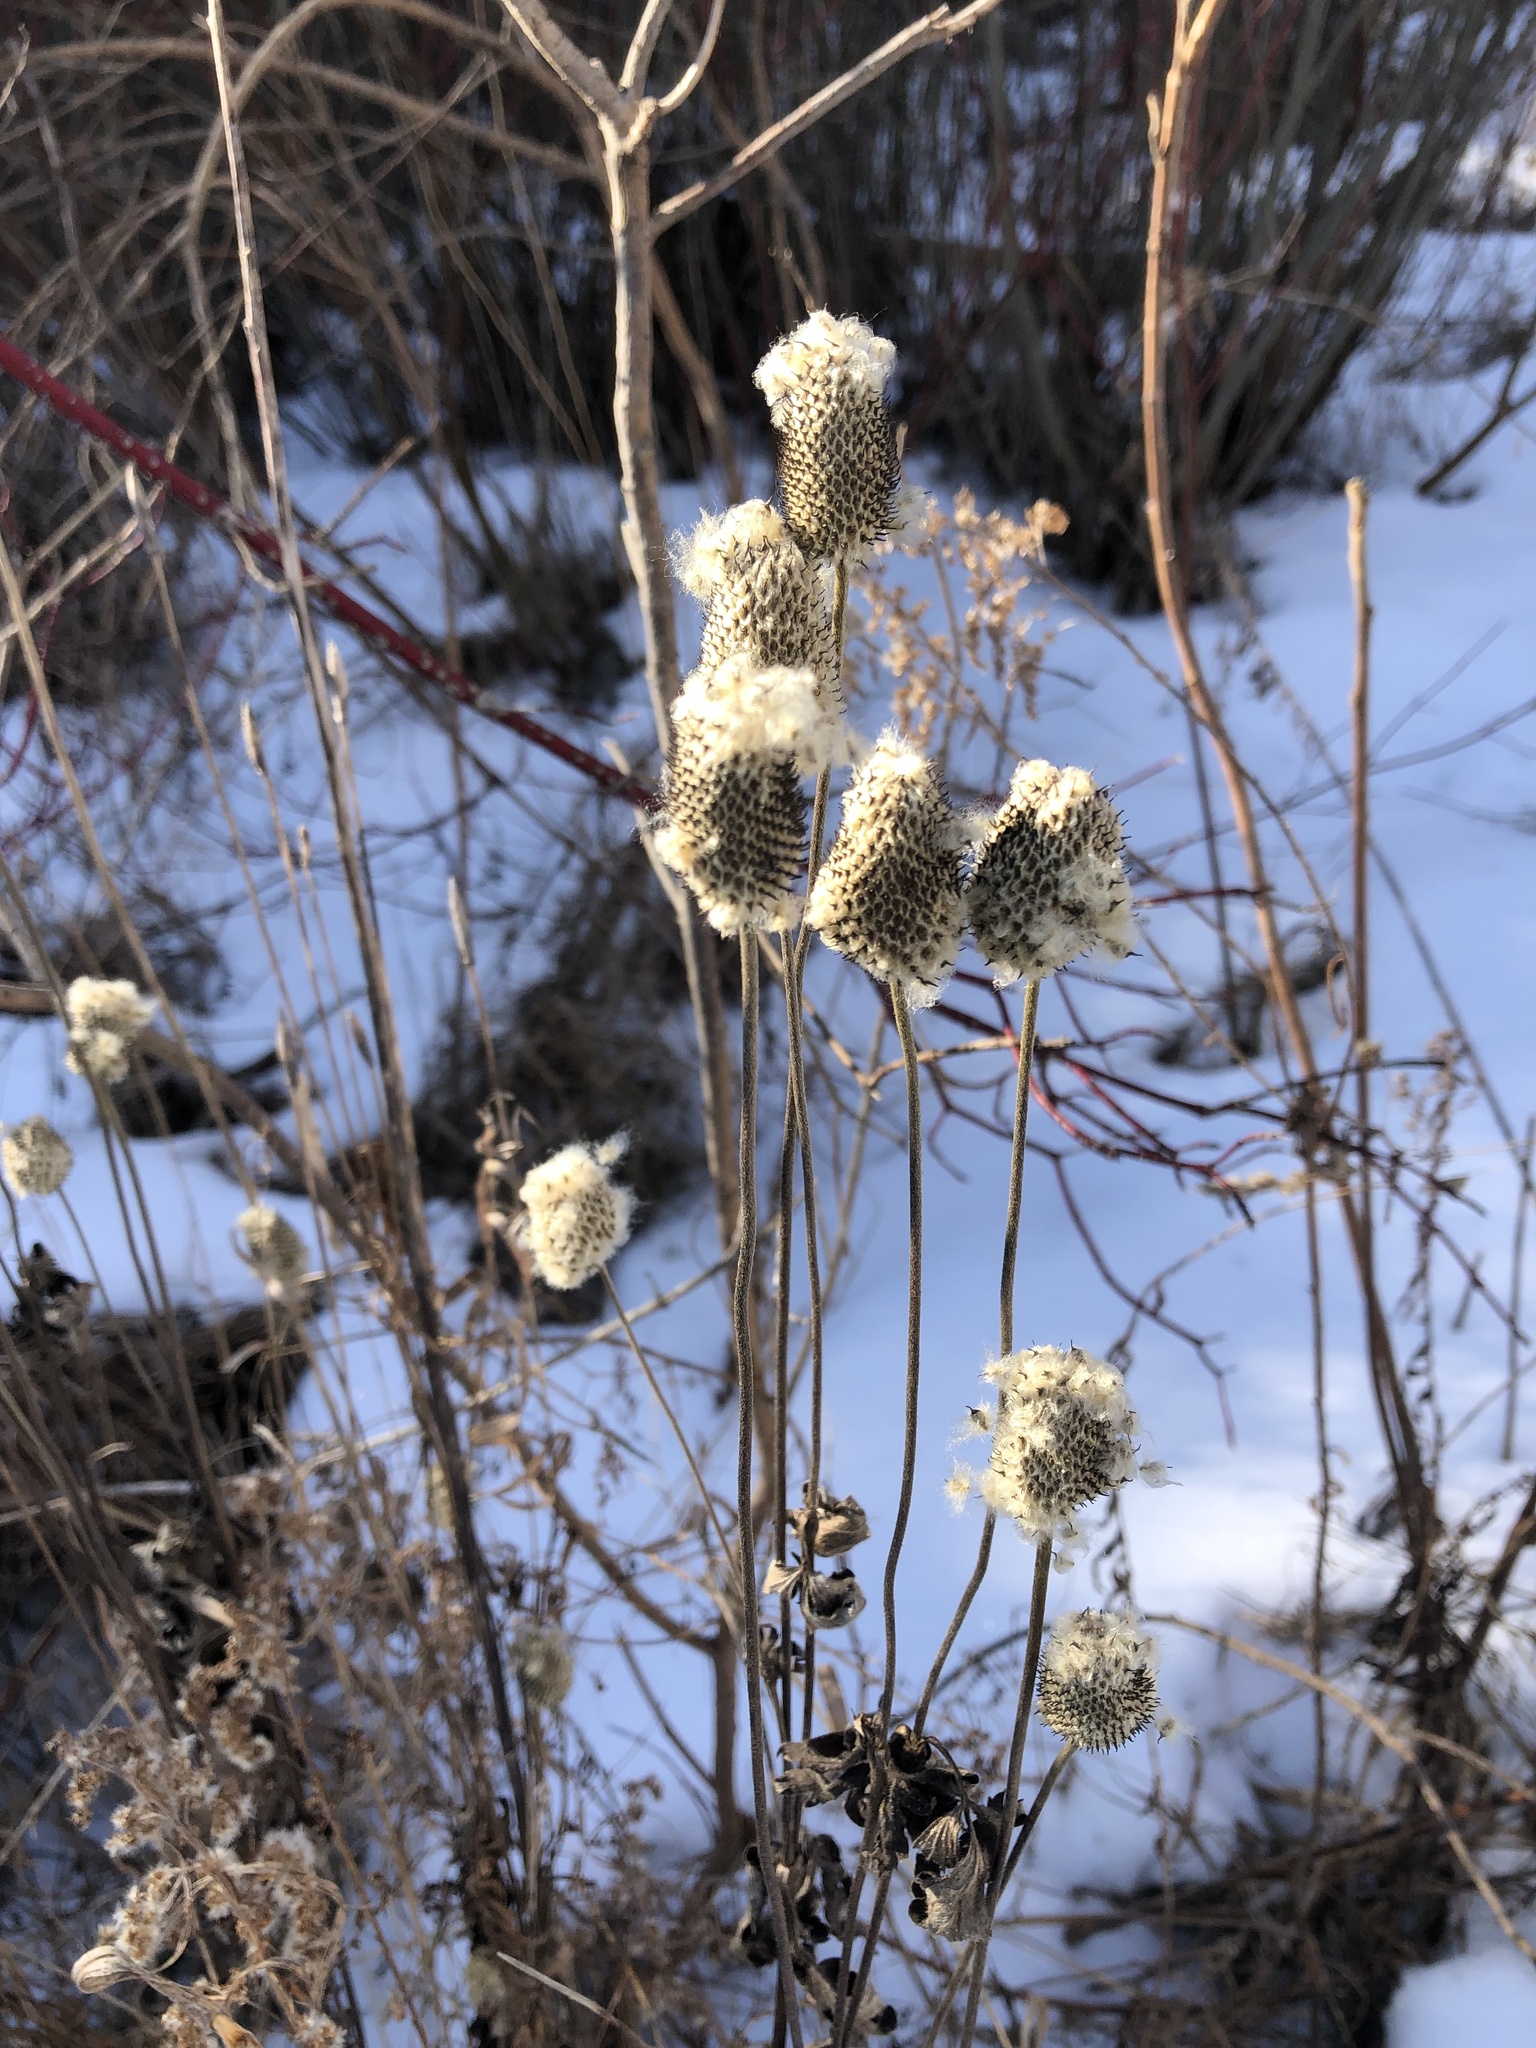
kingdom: Plantae
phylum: Tracheophyta
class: Magnoliopsida
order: Ranunculales
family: Ranunculaceae
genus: Anemone
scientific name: Anemone virginiana
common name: Tall anemone
